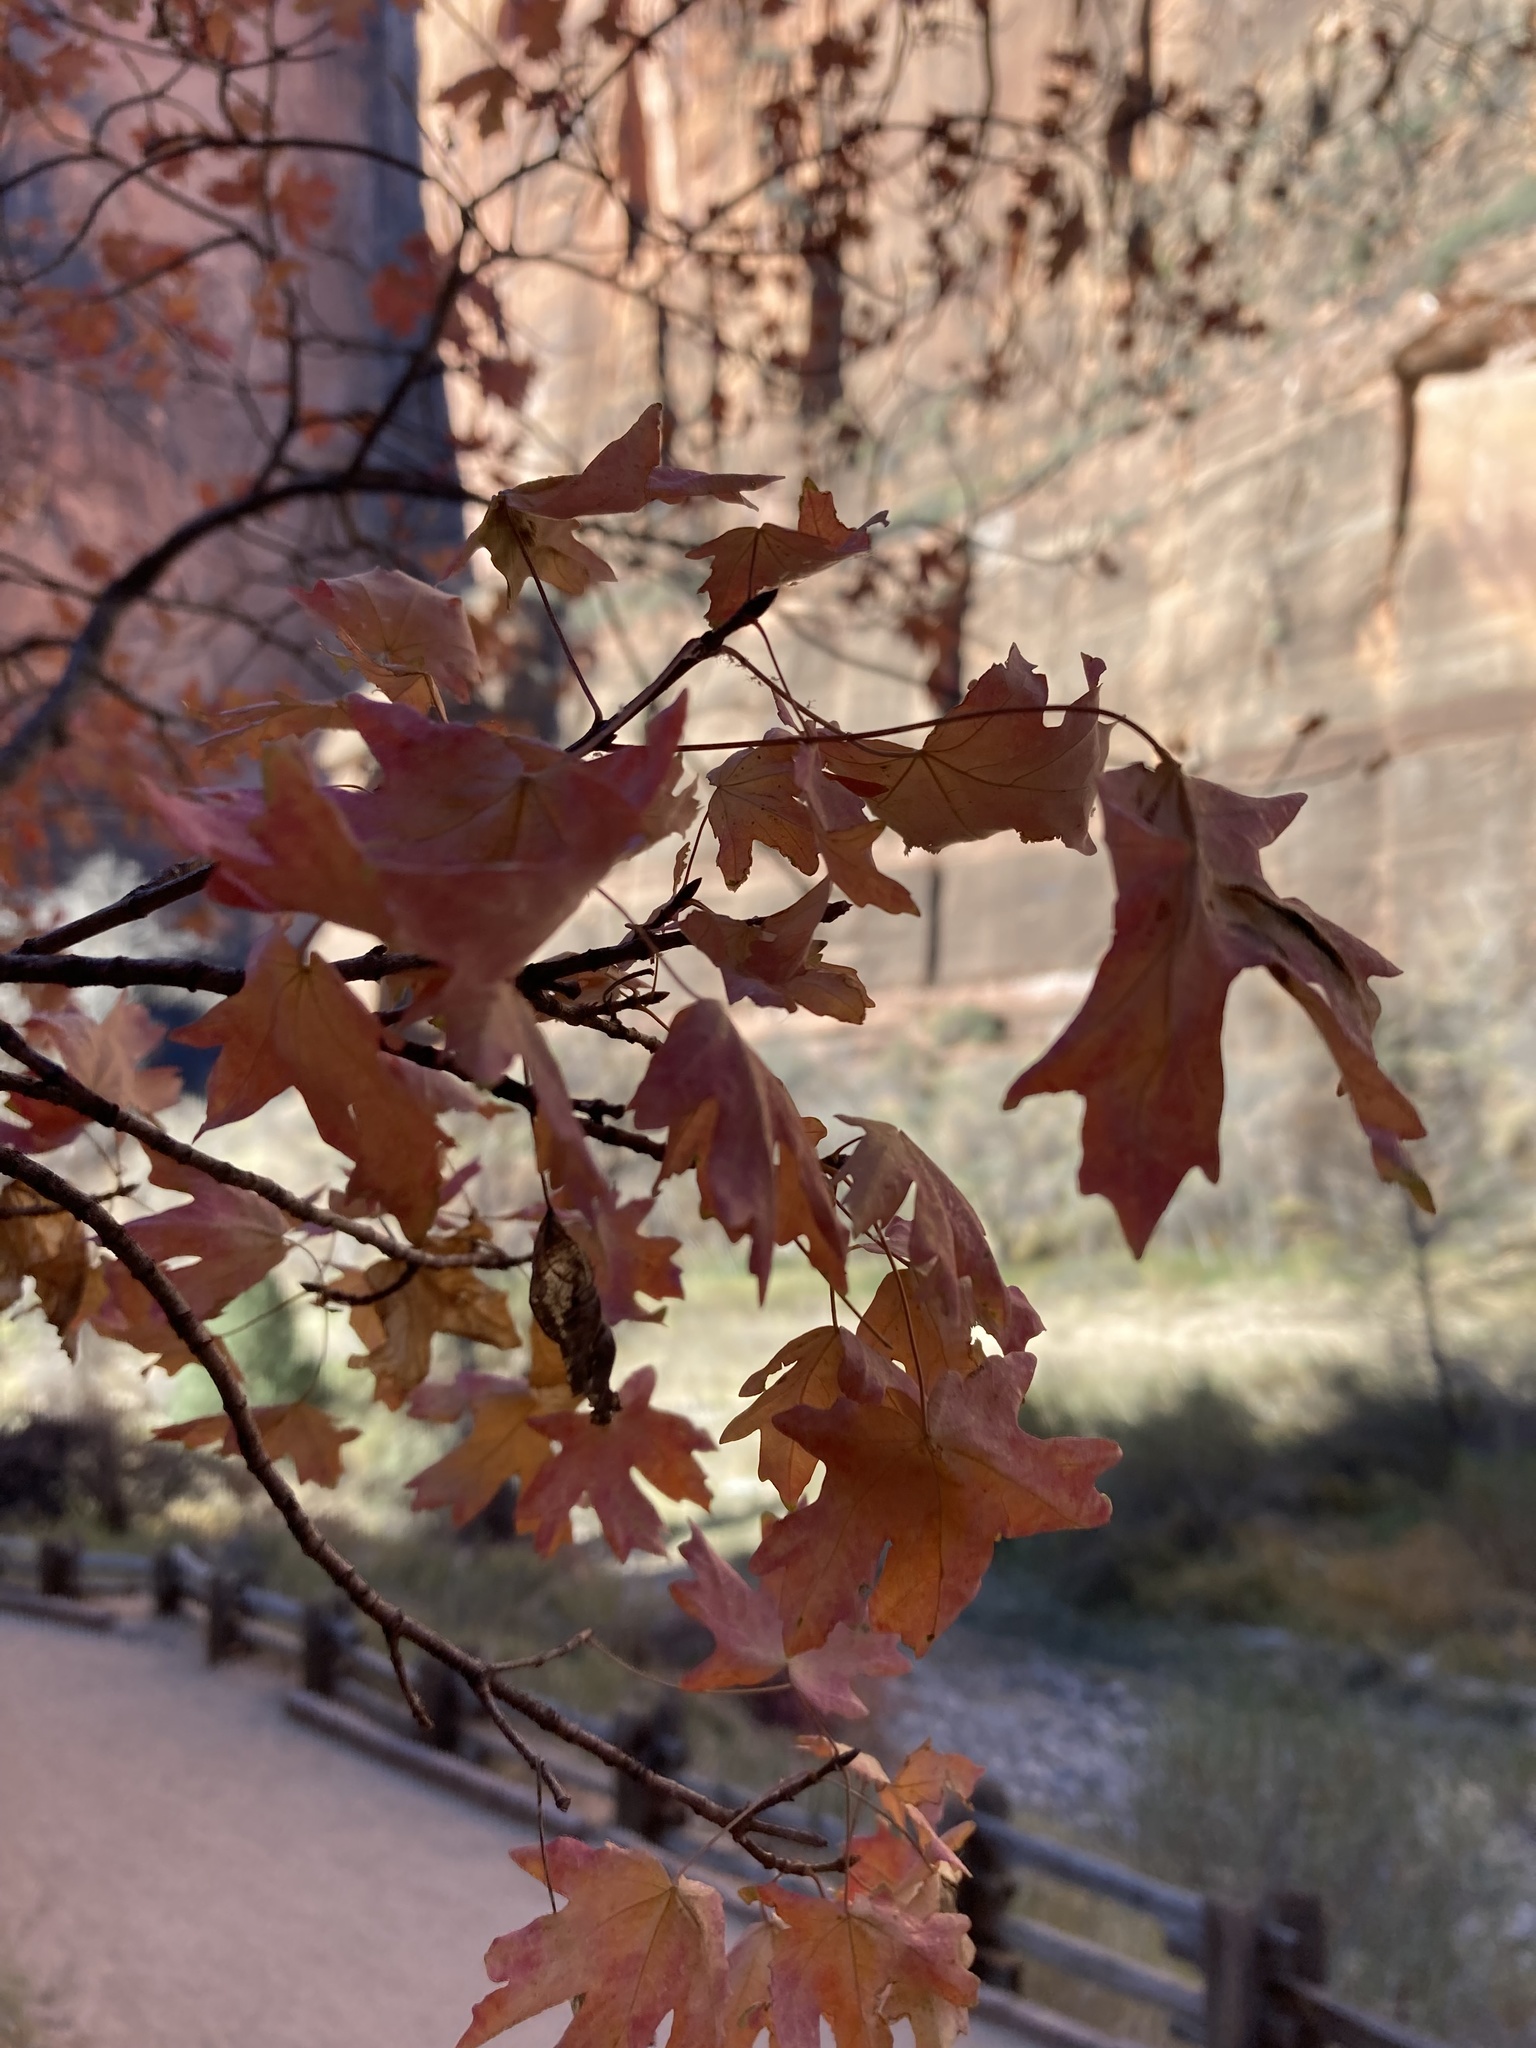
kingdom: Plantae
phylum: Tracheophyta
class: Magnoliopsida
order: Sapindales
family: Sapindaceae
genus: Acer
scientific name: Acer grandidentatum
